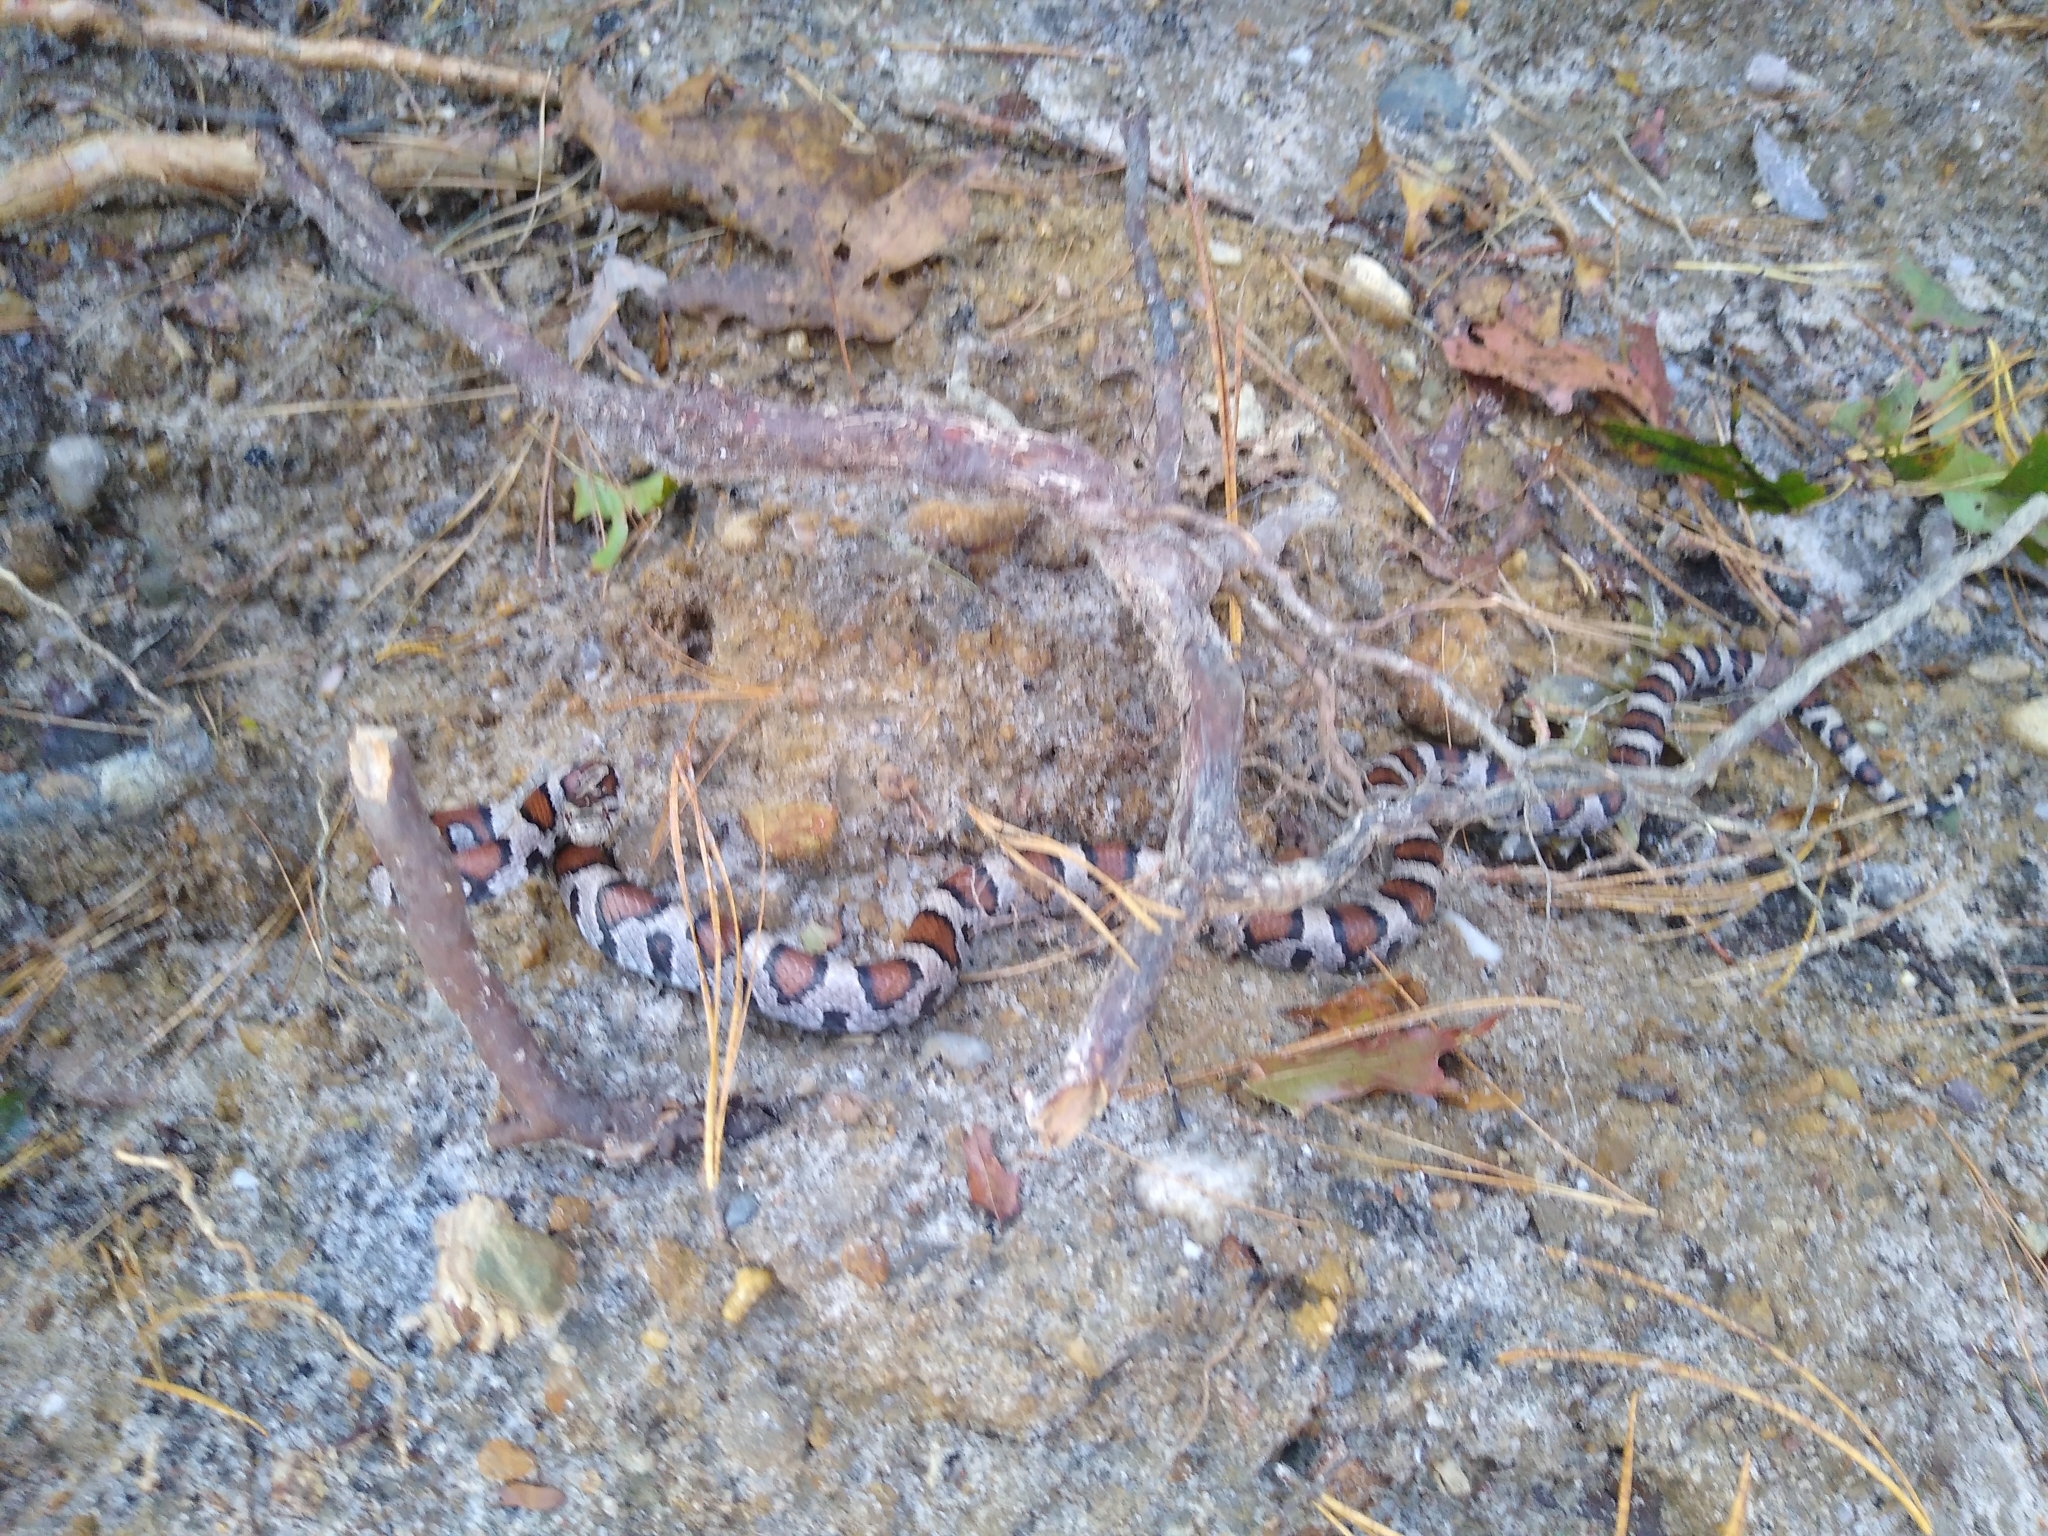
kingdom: Animalia
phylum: Chordata
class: Squamata
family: Colubridae
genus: Lampropeltis
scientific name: Lampropeltis triangulum
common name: Eastern milksnake
